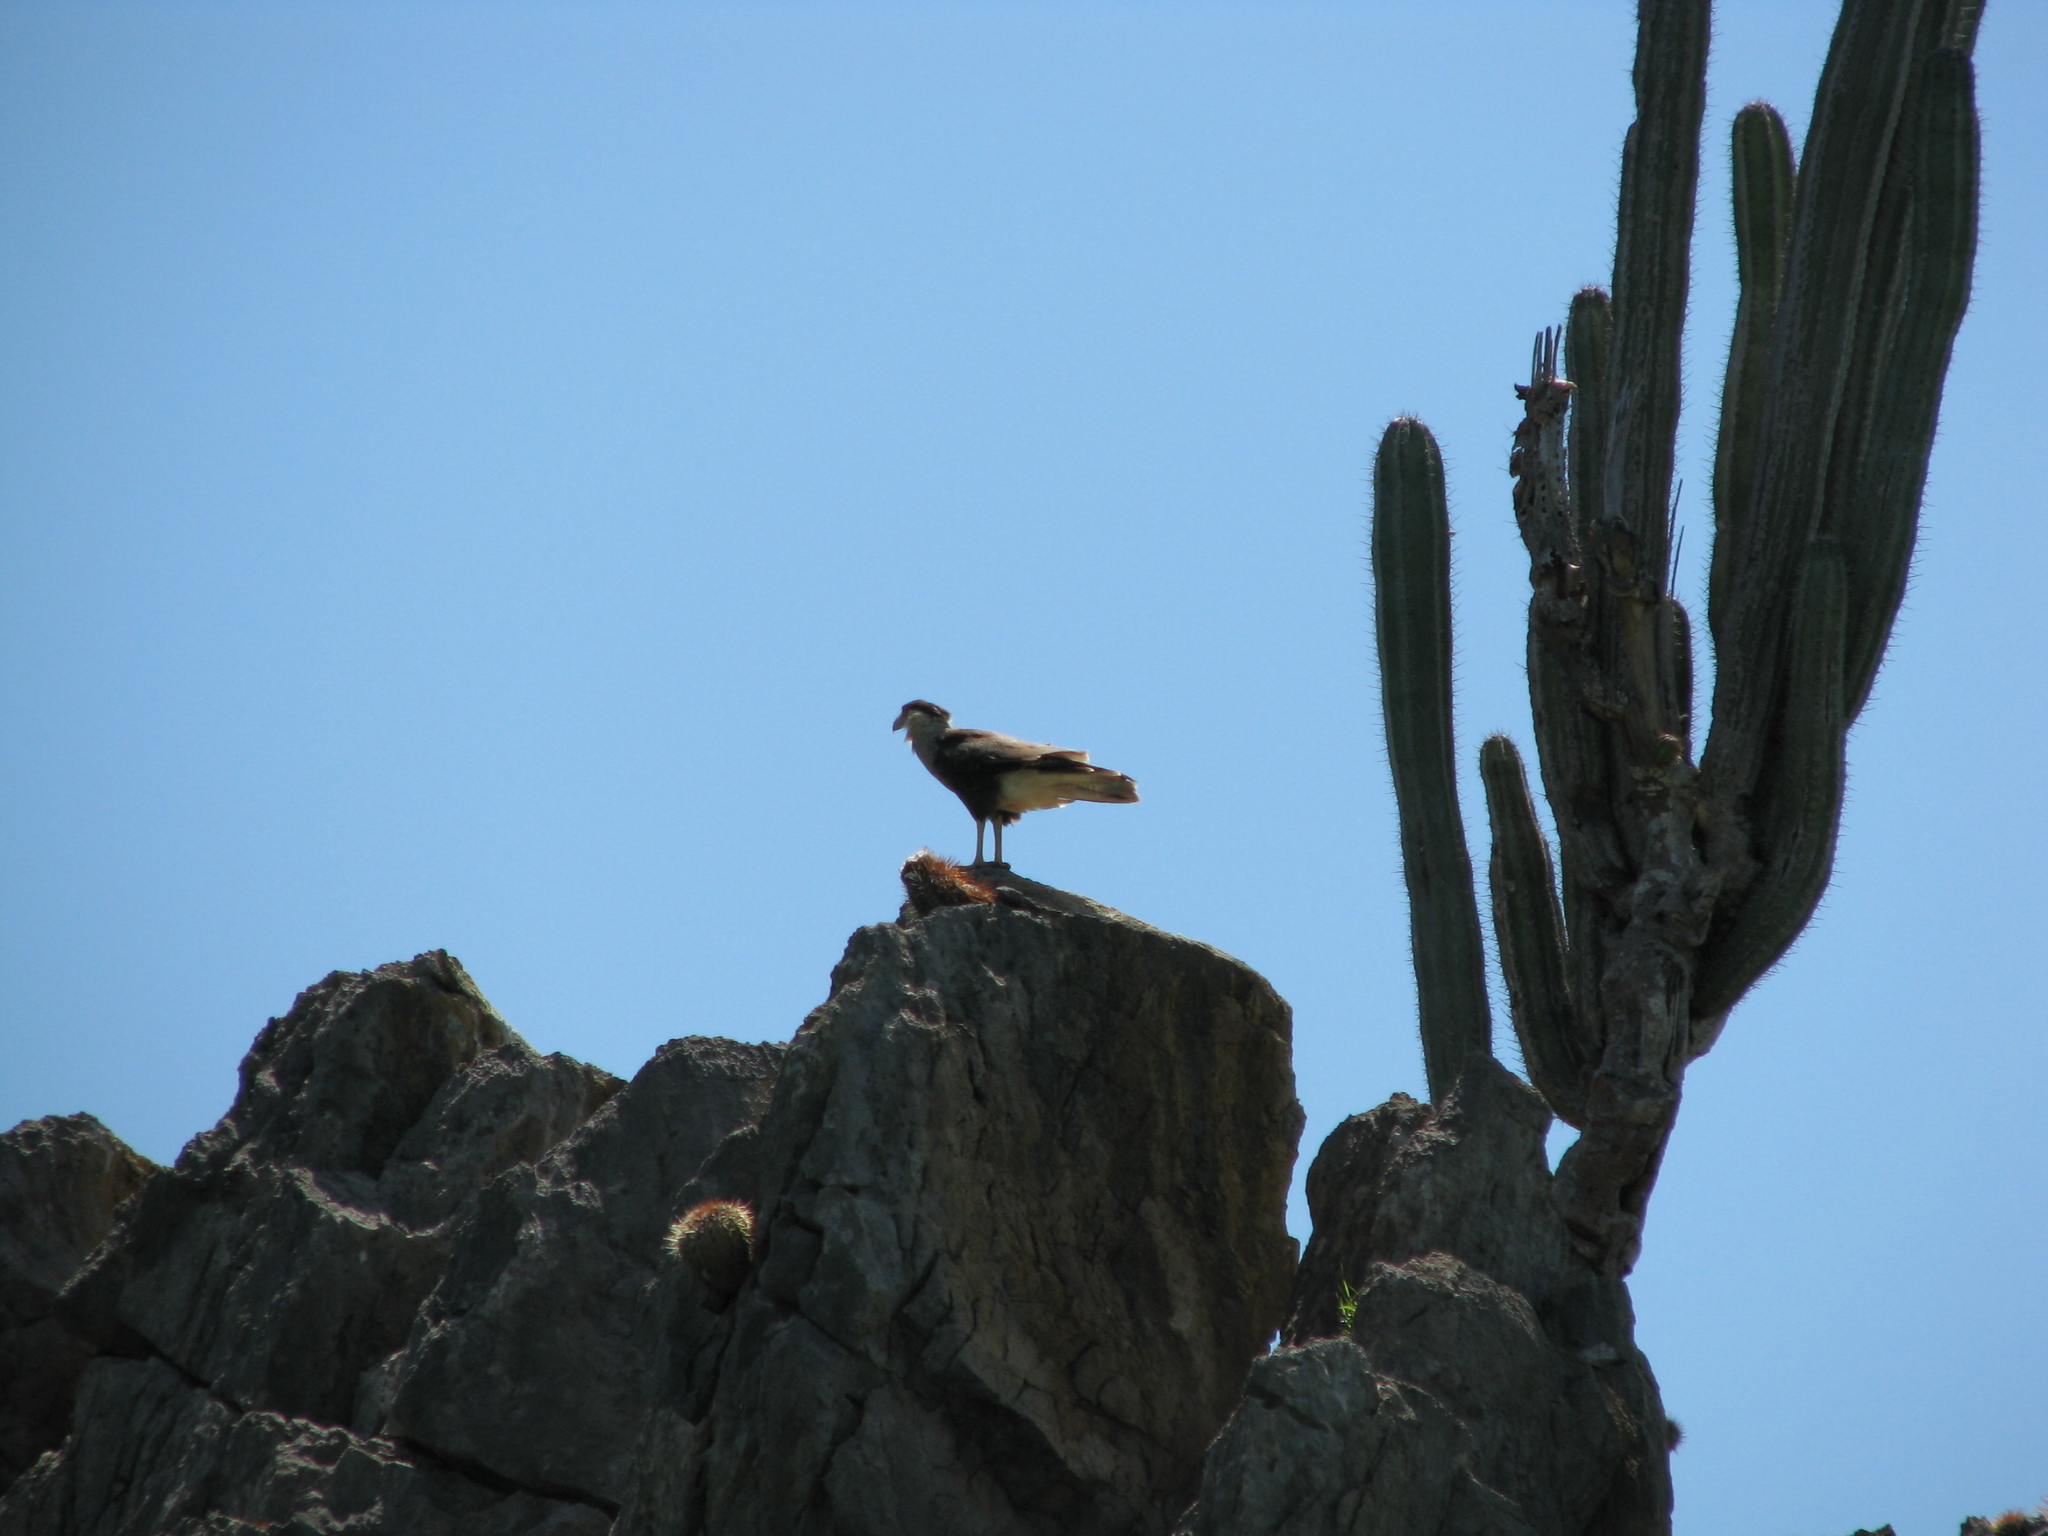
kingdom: Animalia
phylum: Chordata
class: Aves
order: Falconiformes
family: Falconidae
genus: Caracara
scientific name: Caracara plancus
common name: Southern caracara
